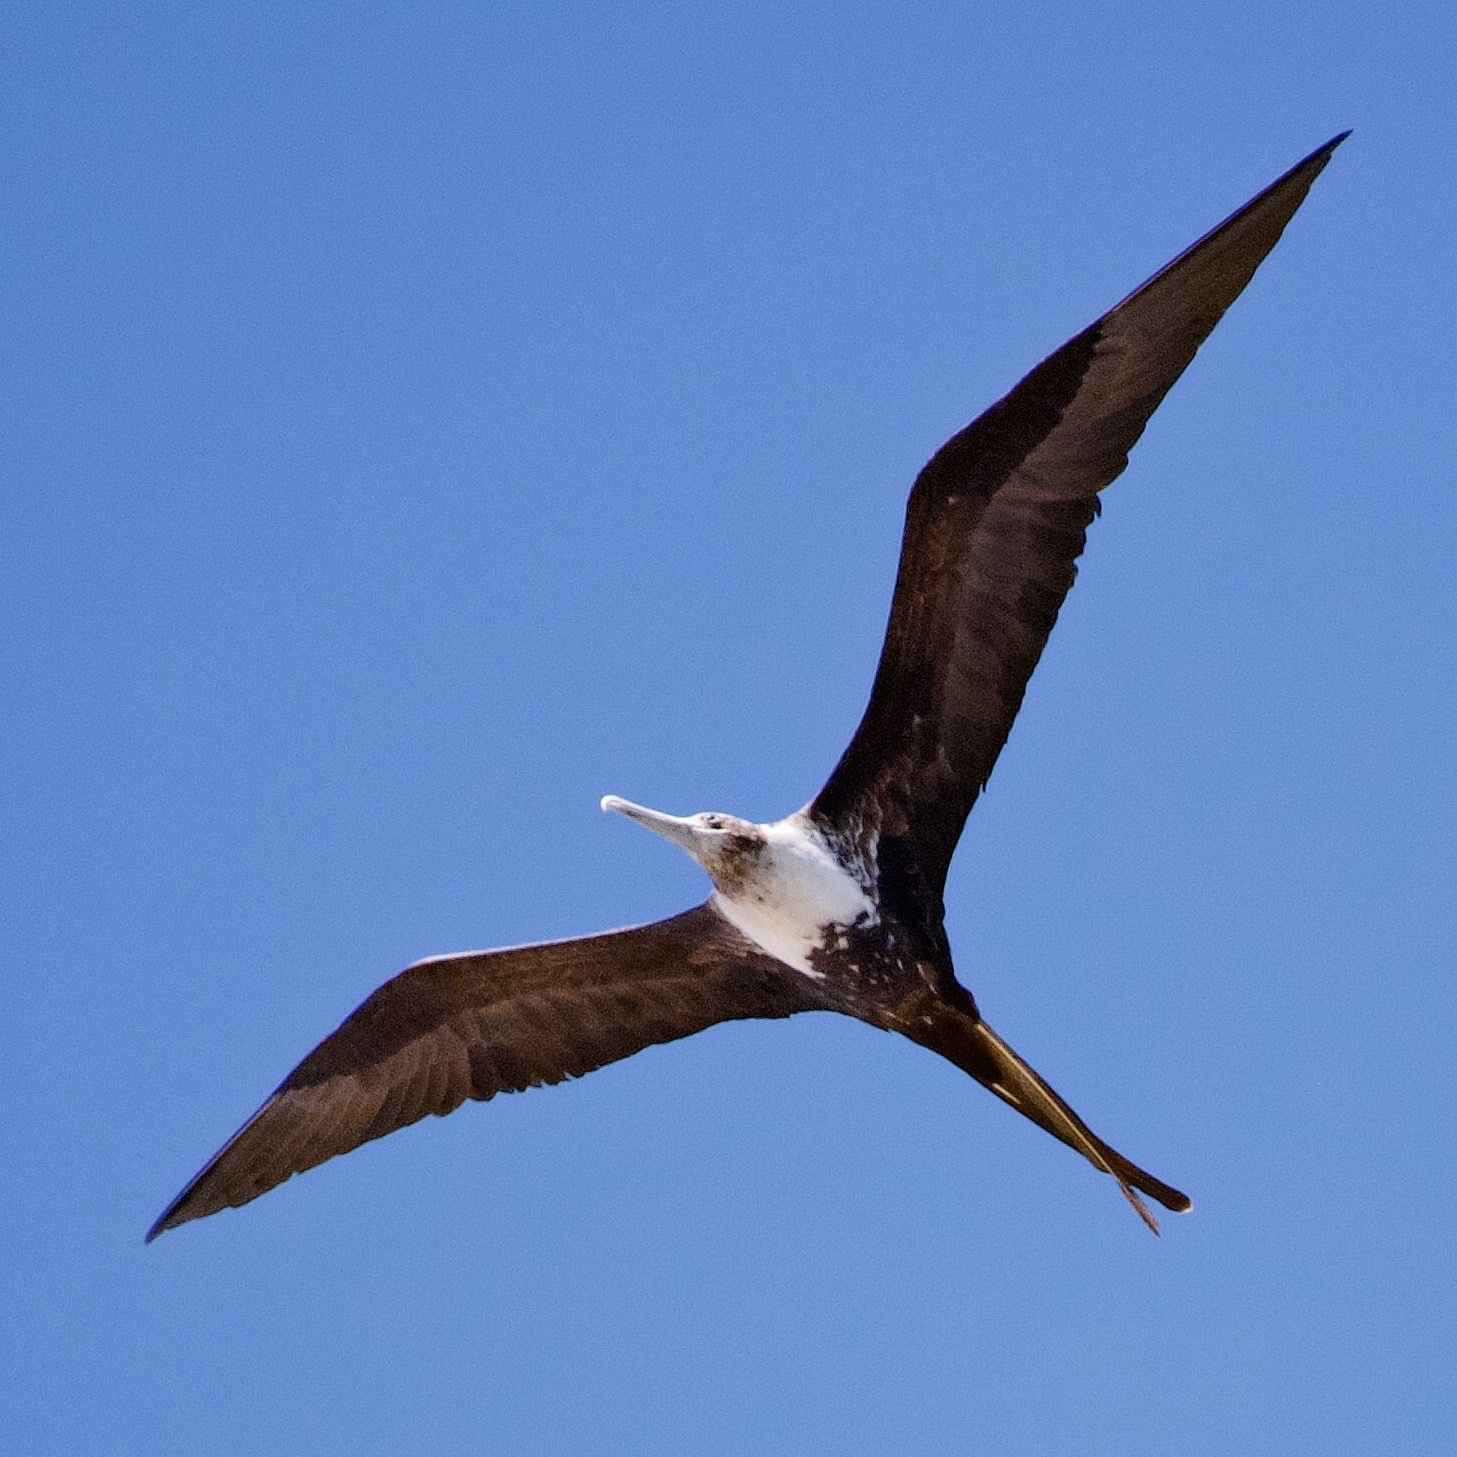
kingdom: Animalia
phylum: Chordata
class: Aves
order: Suliformes
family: Fregatidae
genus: Fregata
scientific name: Fregata magnificens
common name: Magnificent frigatebird
